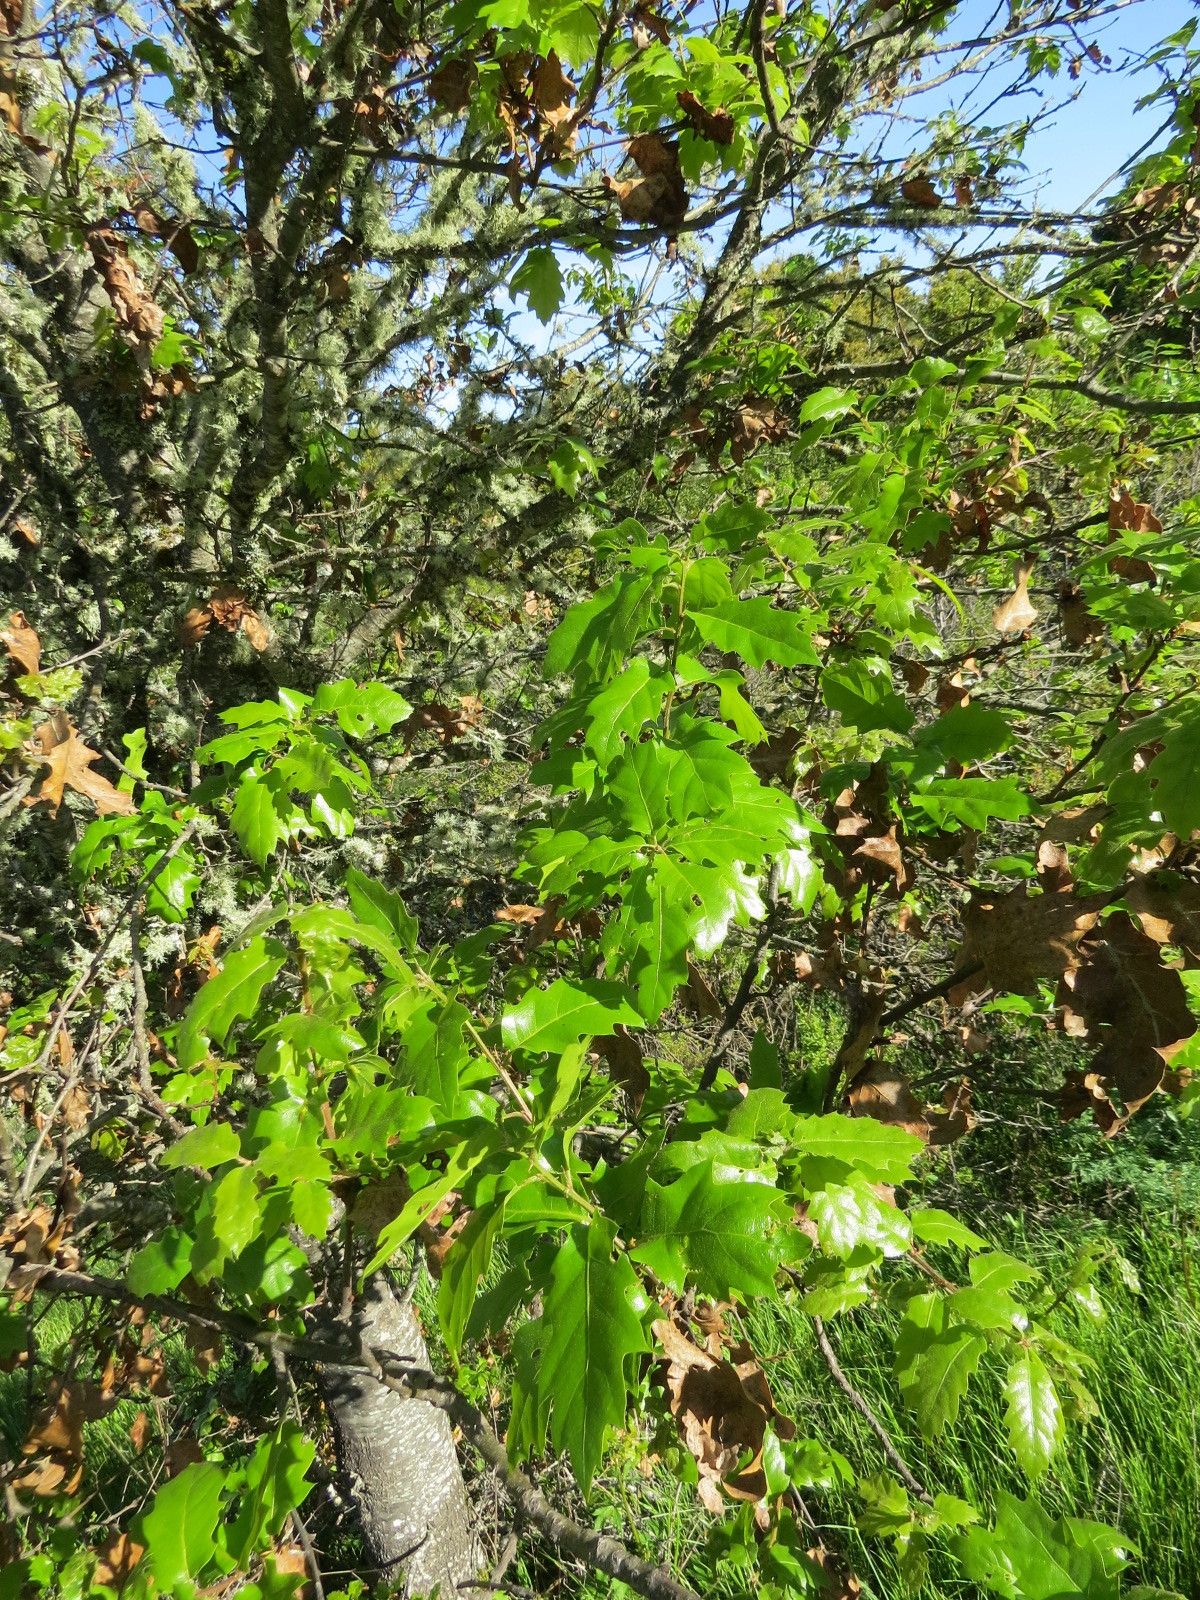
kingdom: Animalia
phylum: Arthropoda
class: Insecta
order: Hymenoptera
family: Cynipidae
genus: Melikaiella
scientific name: Melikaiella
